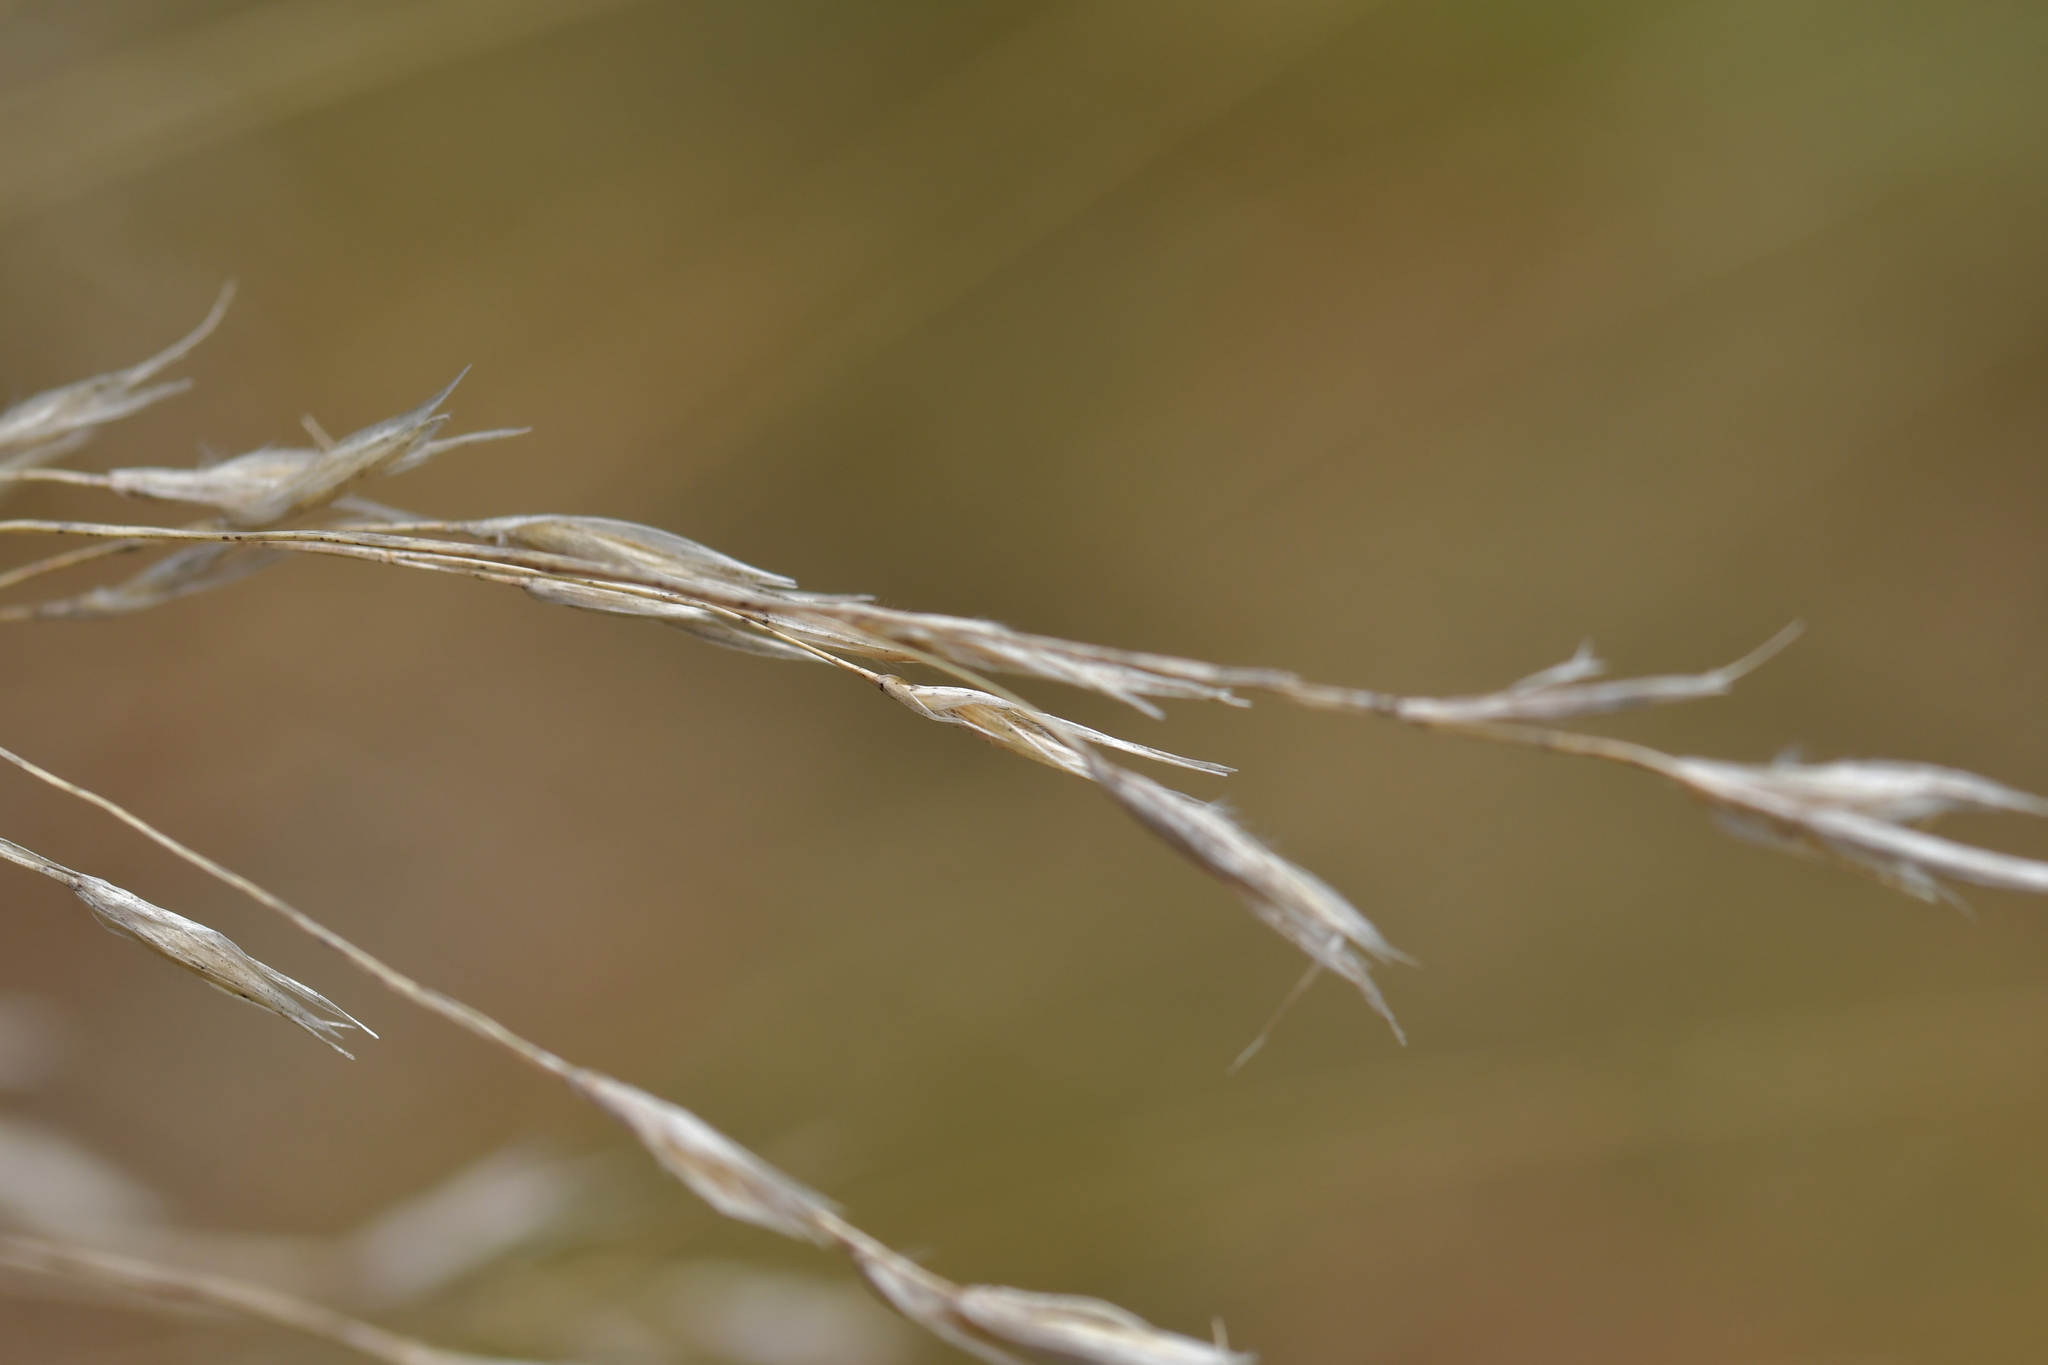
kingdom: Plantae
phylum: Tracheophyta
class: Liliopsida
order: Poales
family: Poaceae
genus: Chionochloa
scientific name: Chionochloa rubra
